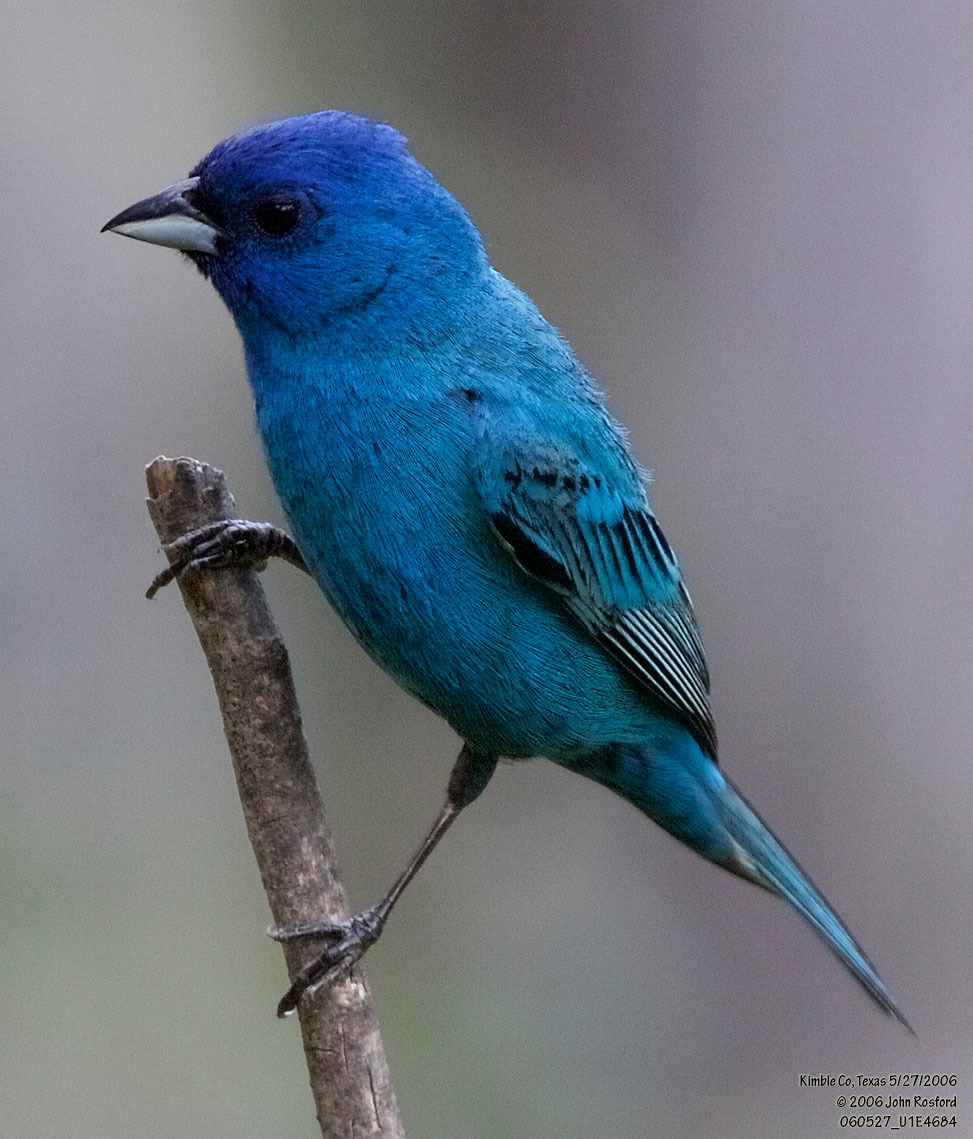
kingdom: Animalia
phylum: Chordata
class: Aves
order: Passeriformes
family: Cardinalidae
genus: Passerina
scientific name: Passerina cyanea
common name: Indigo bunting
